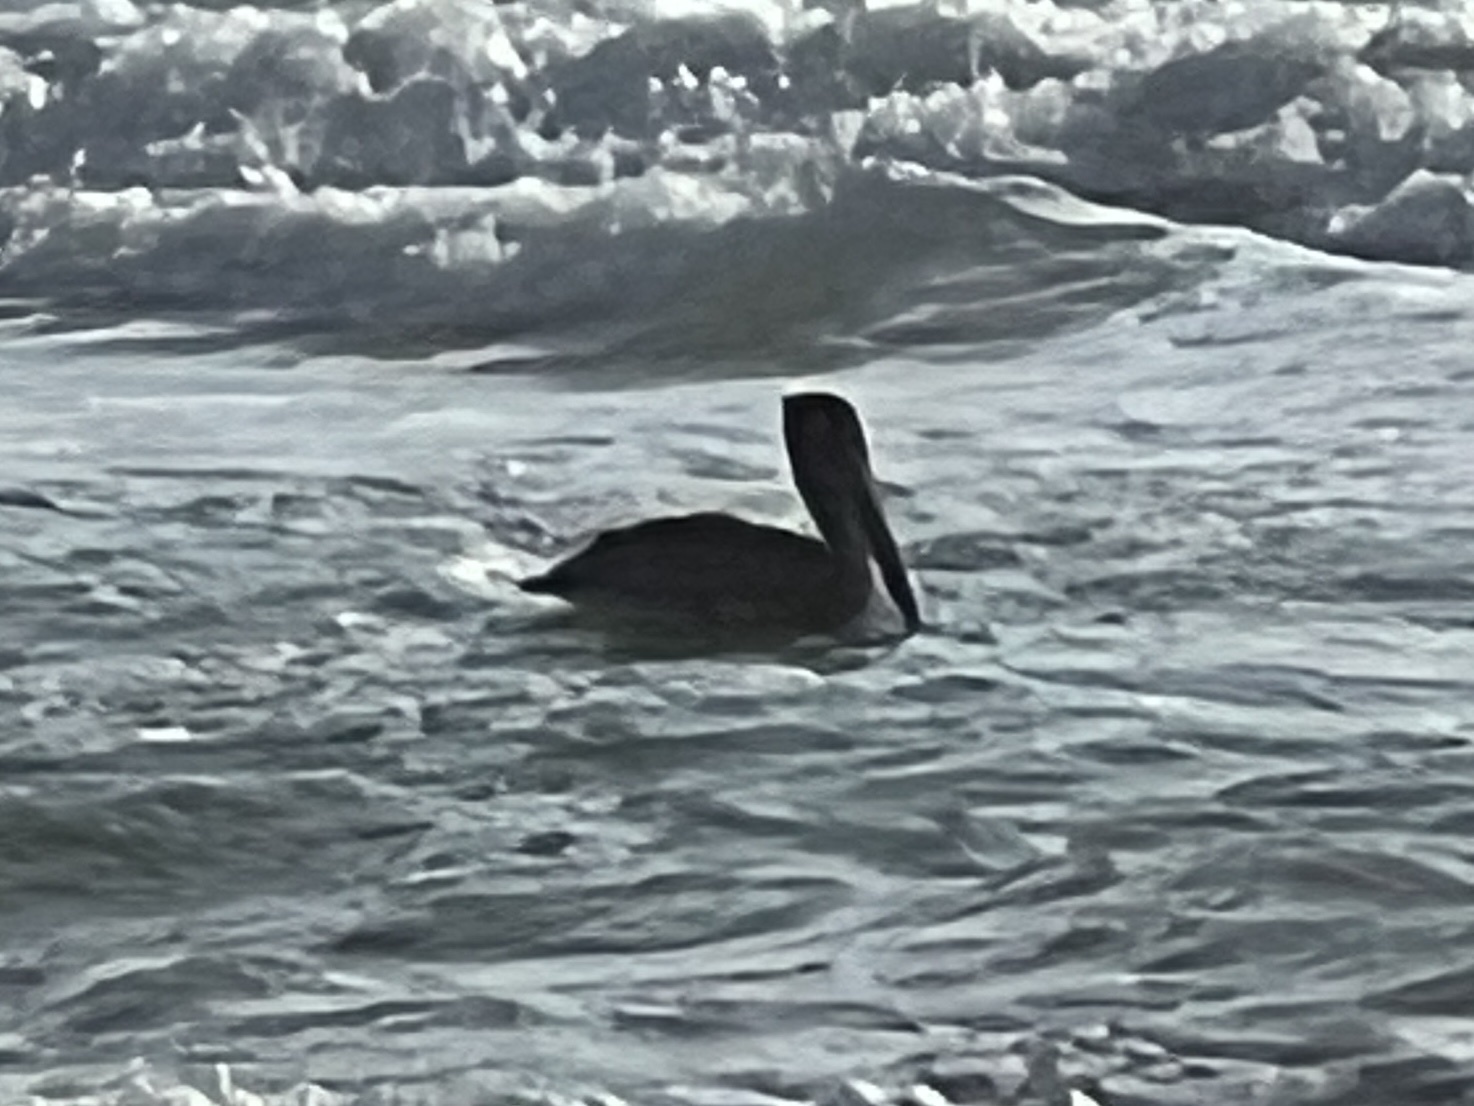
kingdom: Animalia
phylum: Chordata
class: Aves
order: Pelecaniformes
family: Pelecanidae
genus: Pelecanus
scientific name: Pelecanus occidentalis
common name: Brown pelican
